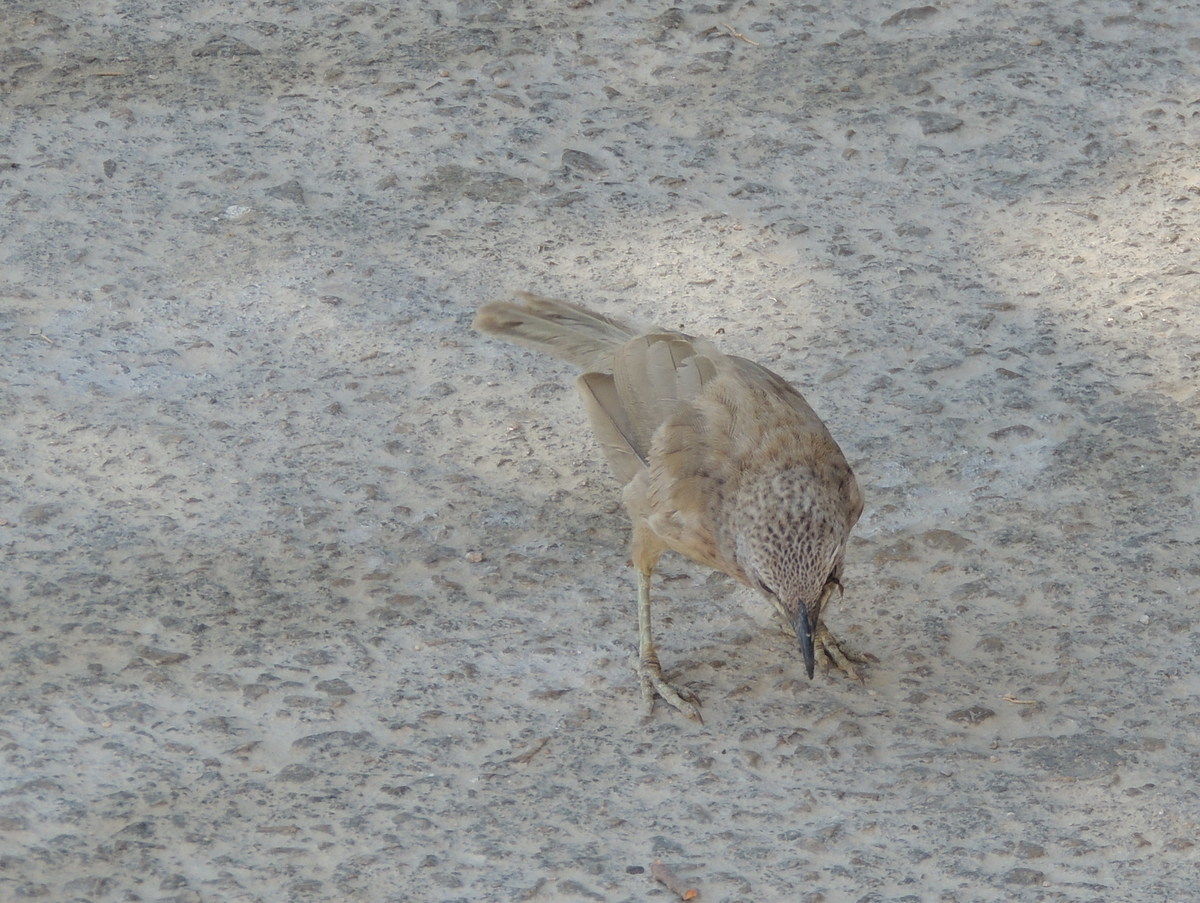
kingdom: Animalia
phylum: Chordata
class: Aves
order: Passeriformes
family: Leiothrichidae
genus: Turdoides
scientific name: Turdoides squamiceps
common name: Arabian babbler
